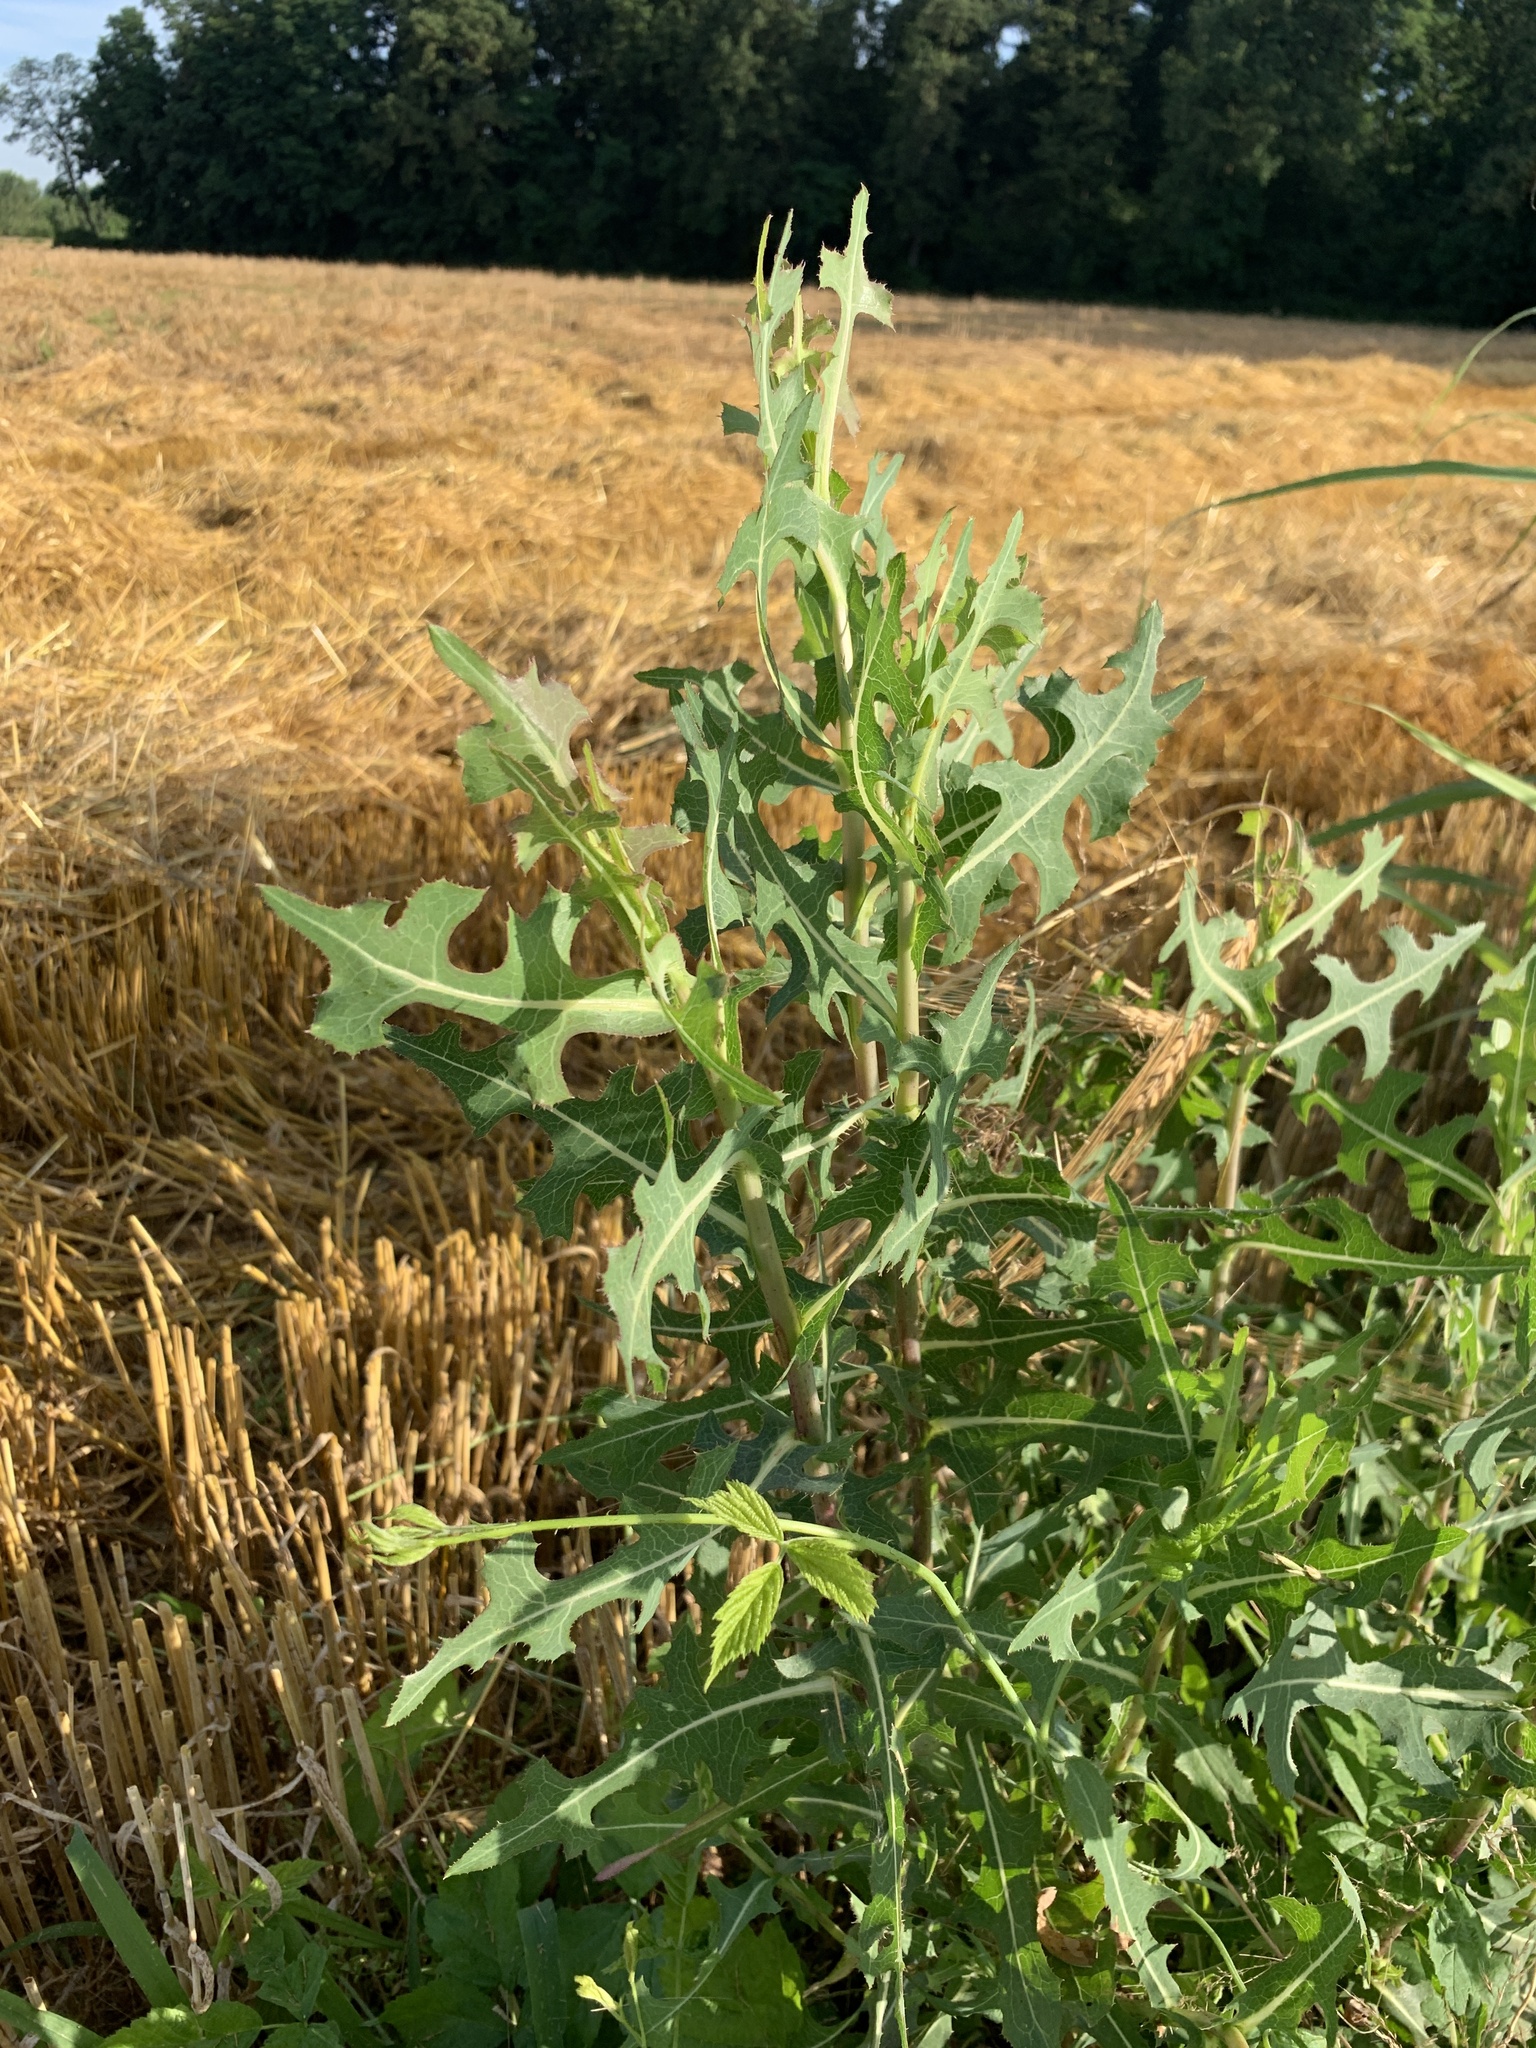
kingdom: Plantae
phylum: Tracheophyta
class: Magnoliopsida
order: Asterales
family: Asteraceae
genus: Lactuca
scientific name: Lactuca serriola
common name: Prickly lettuce
